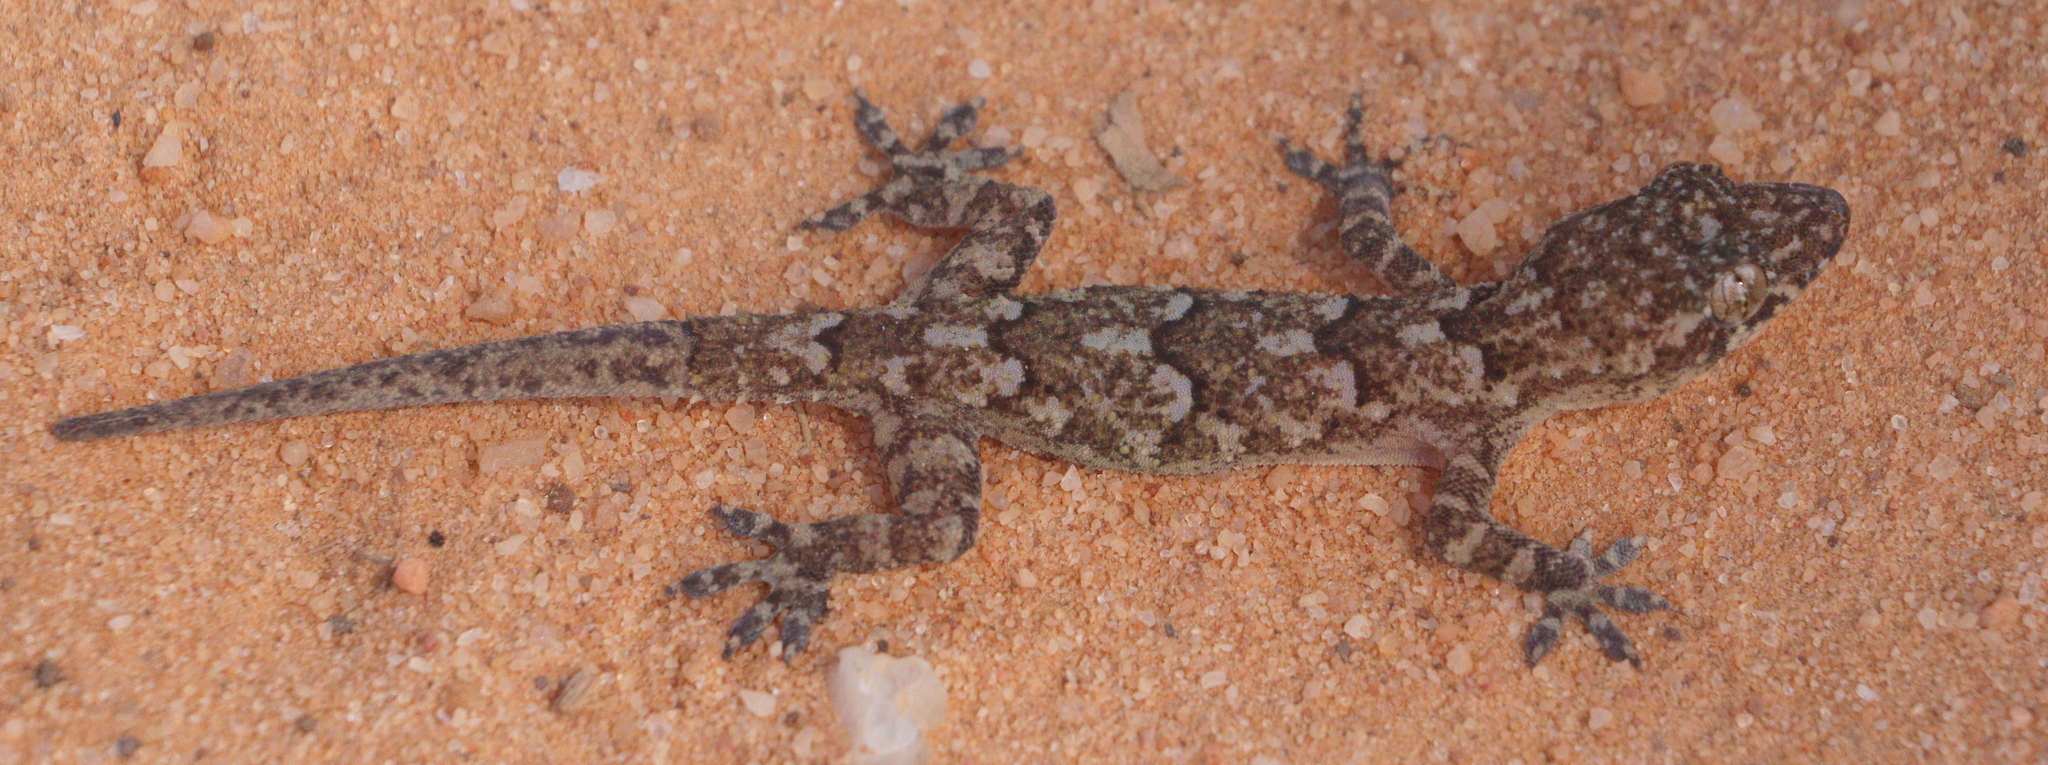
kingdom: Animalia
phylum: Chordata
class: Squamata
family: Gekkonidae
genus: Hemidactylus
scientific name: Hemidactylus mabouia
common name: House gecko
